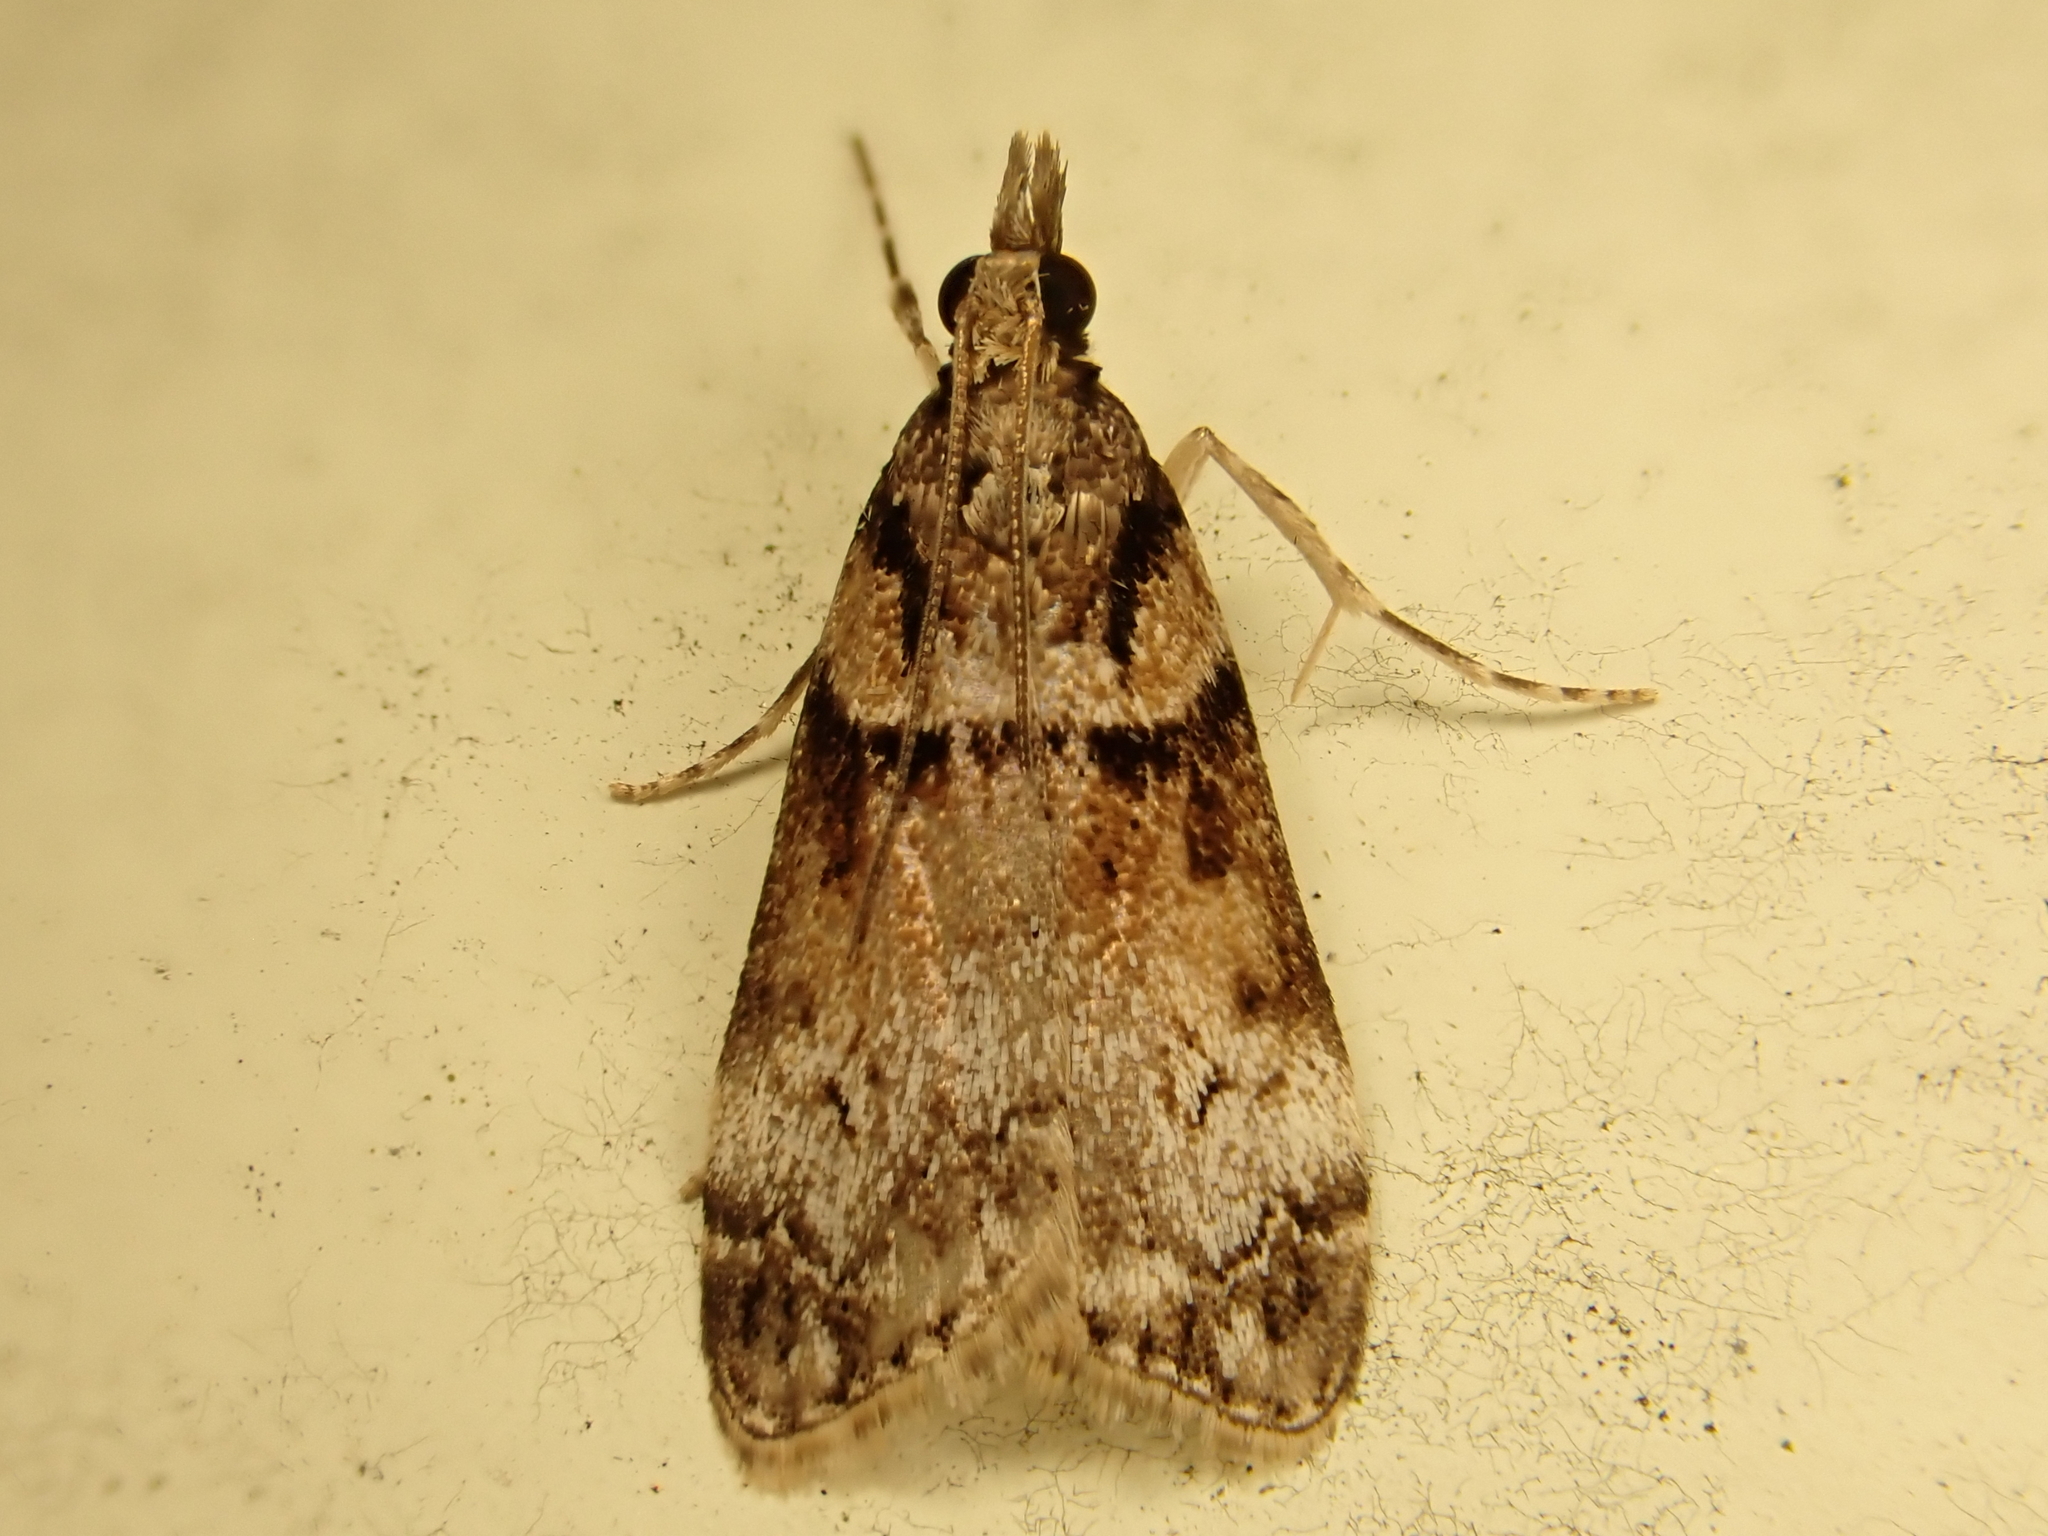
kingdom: Animalia
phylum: Arthropoda
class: Insecta
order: Lepidoptera
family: Crambidae
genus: Eudonia
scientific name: Eudonia colpota
